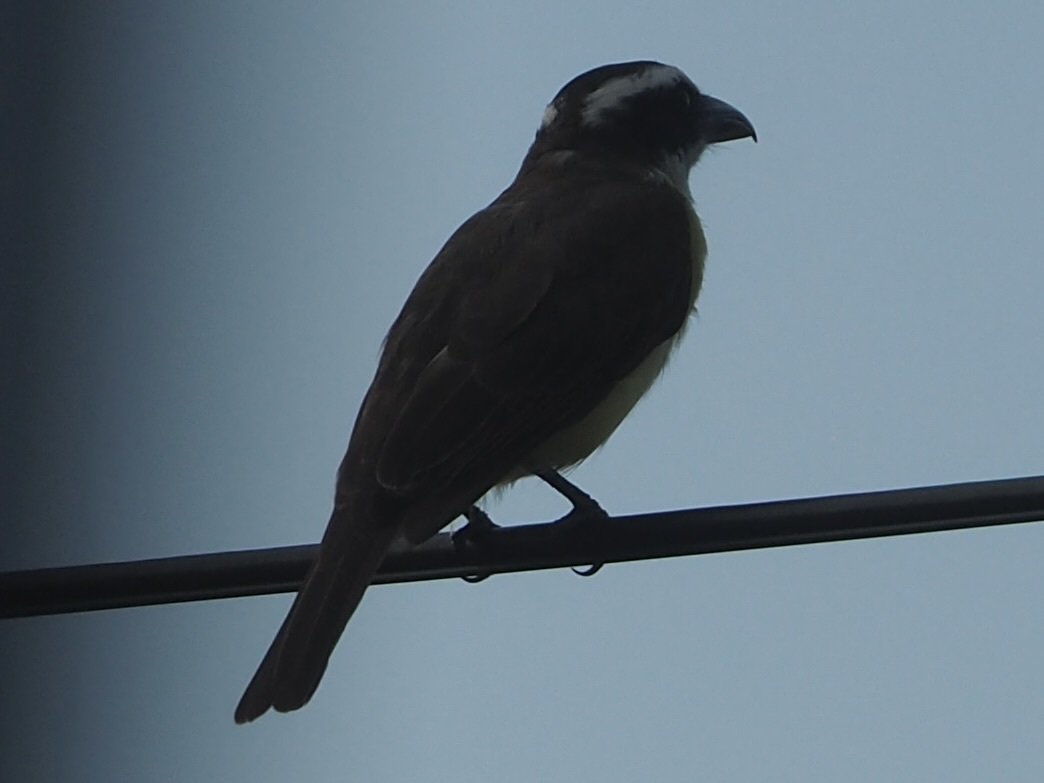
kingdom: Animalia
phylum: Chordata
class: Aves
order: Passeriformes
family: Tyrannidae
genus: Megarynchus
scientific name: Megarynchus pitangua
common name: Boat-billed flycatcher
